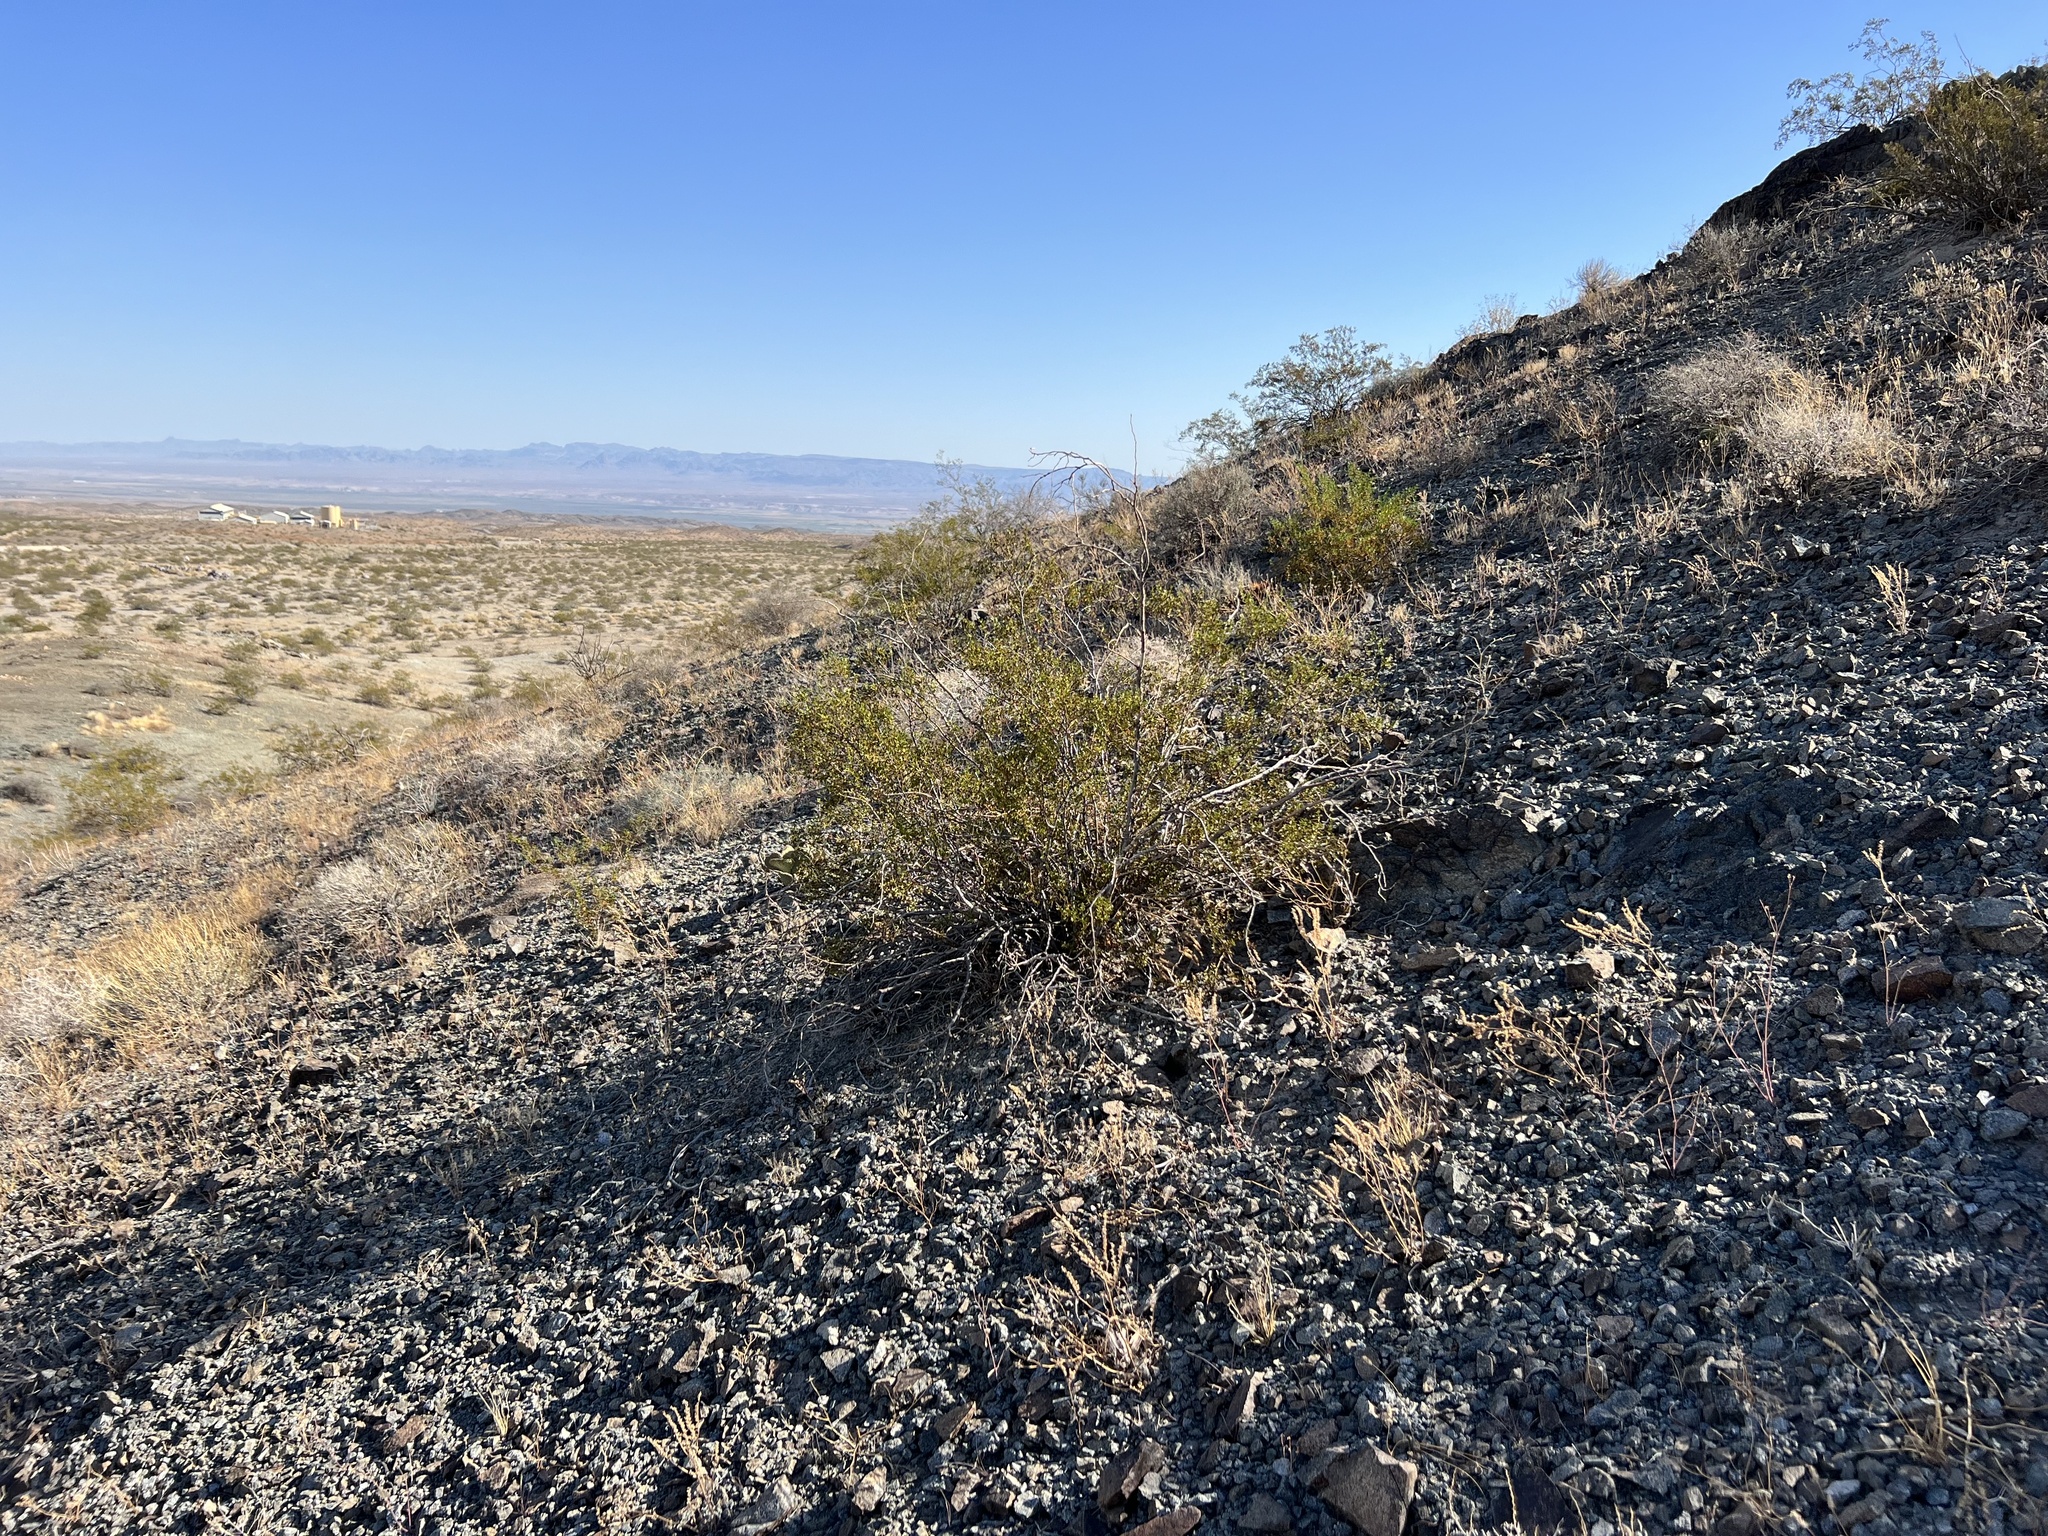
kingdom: Plantae
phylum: Tracheophyta
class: Magnoliopsida
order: Zygophyllales
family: Zygophyllaceae
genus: Larrea
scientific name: Larrea tridentata
